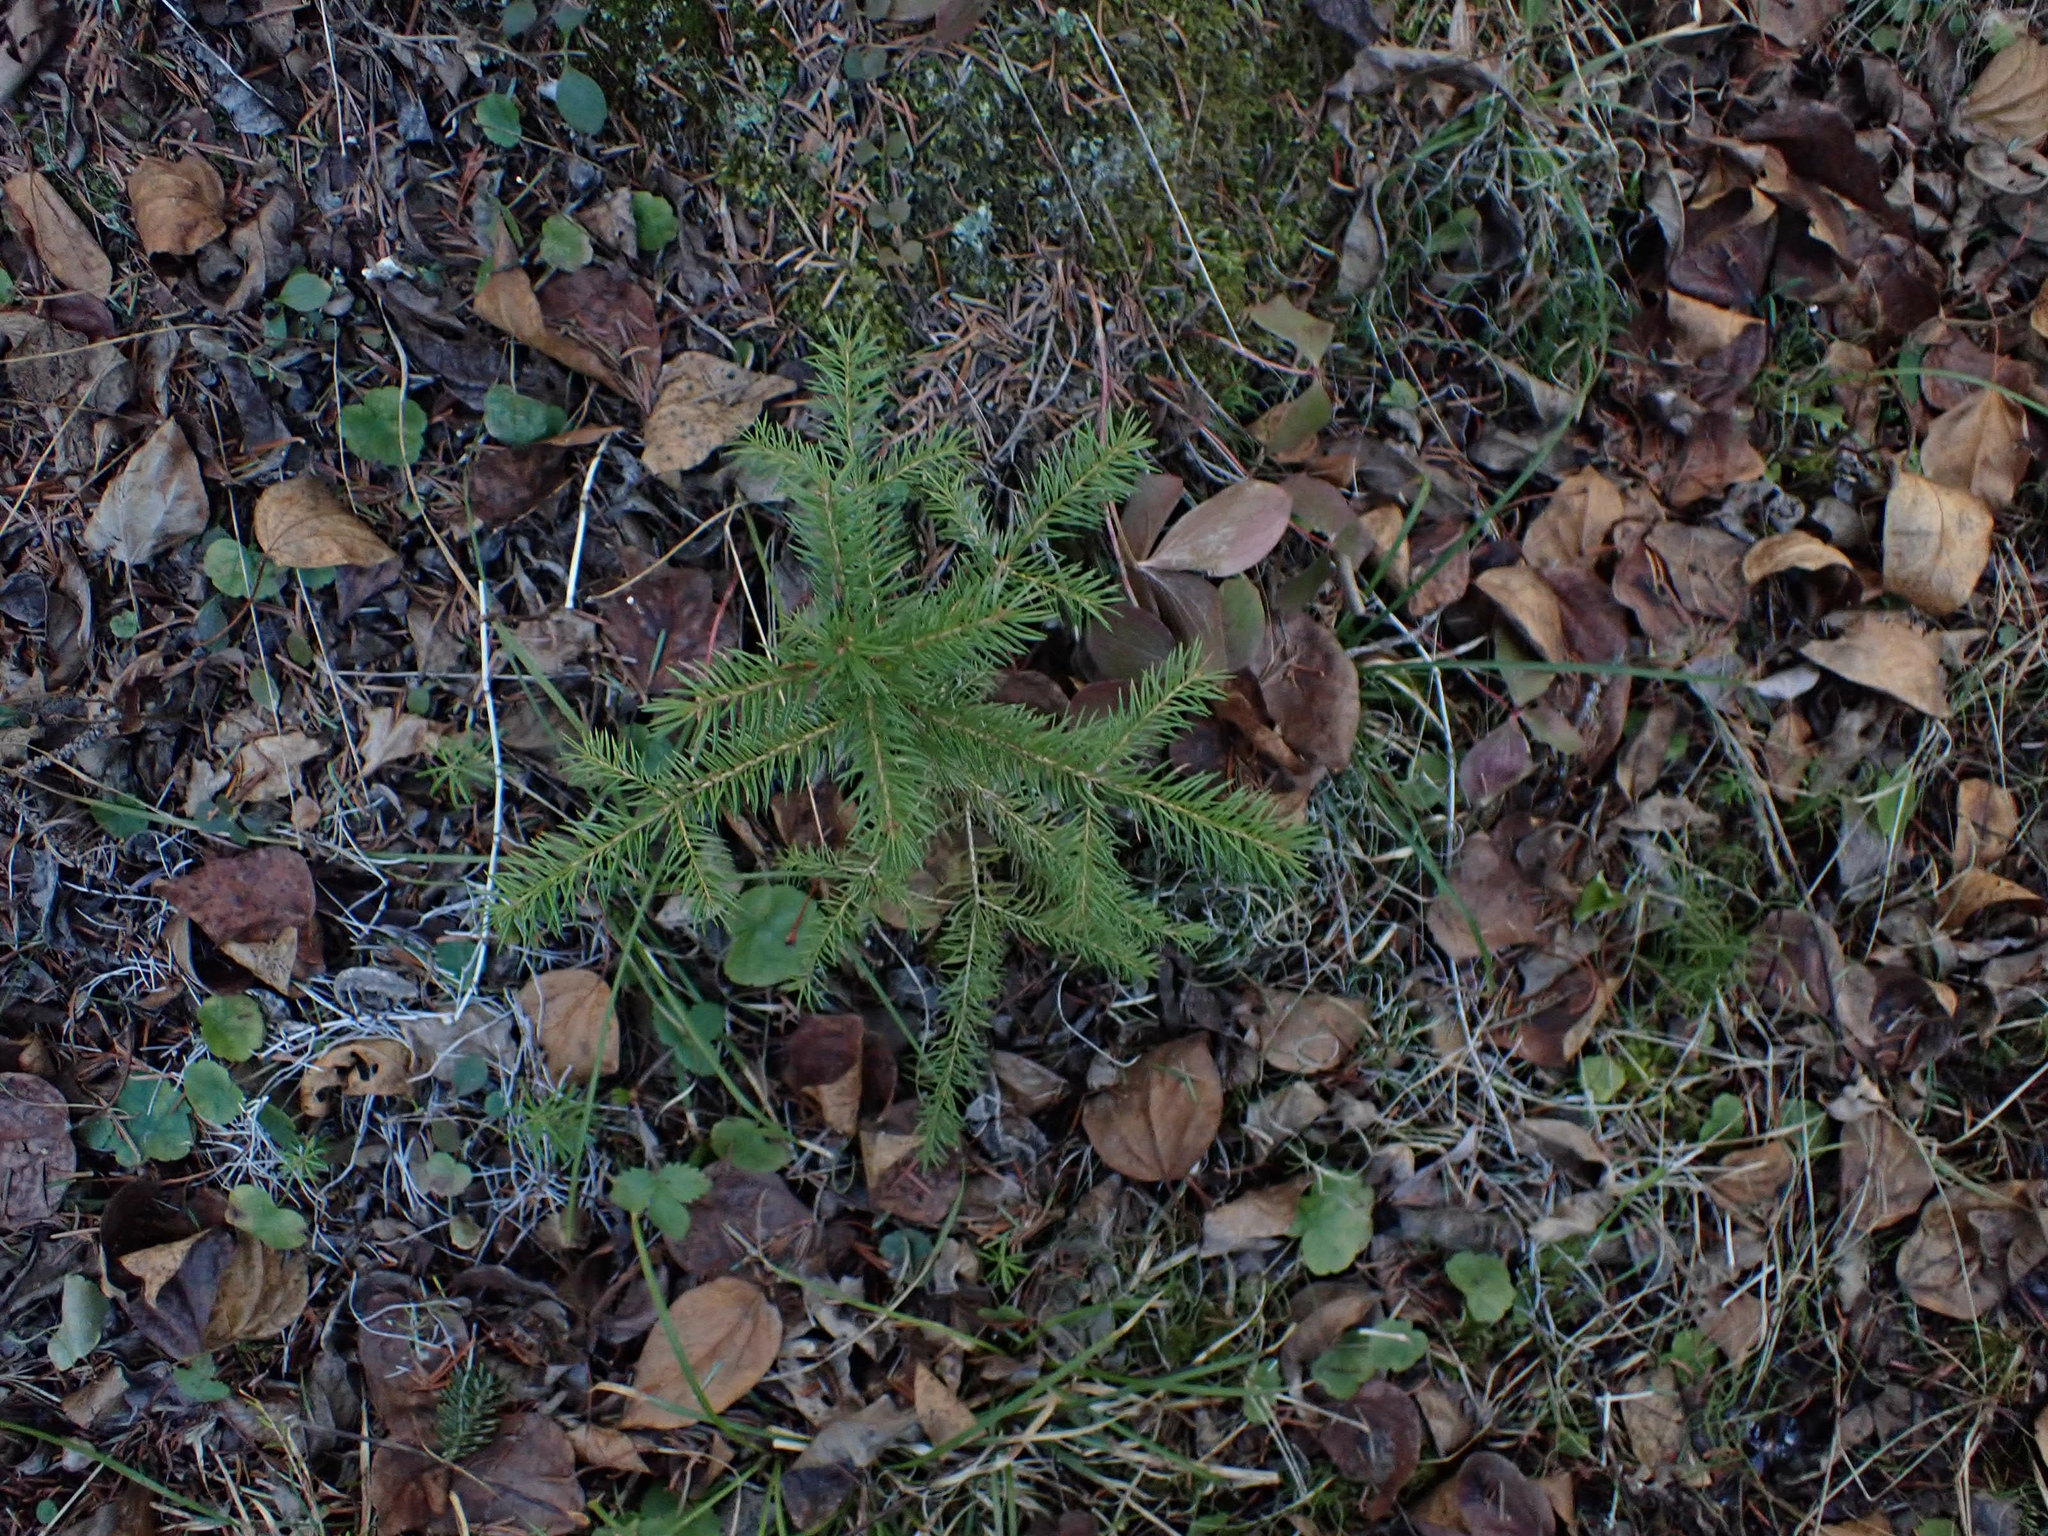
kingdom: Plantae
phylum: Tracheophyta
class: Pinopsida
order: Pinales
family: Pinaceae
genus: Picea
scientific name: Picea glauca
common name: White spruce
